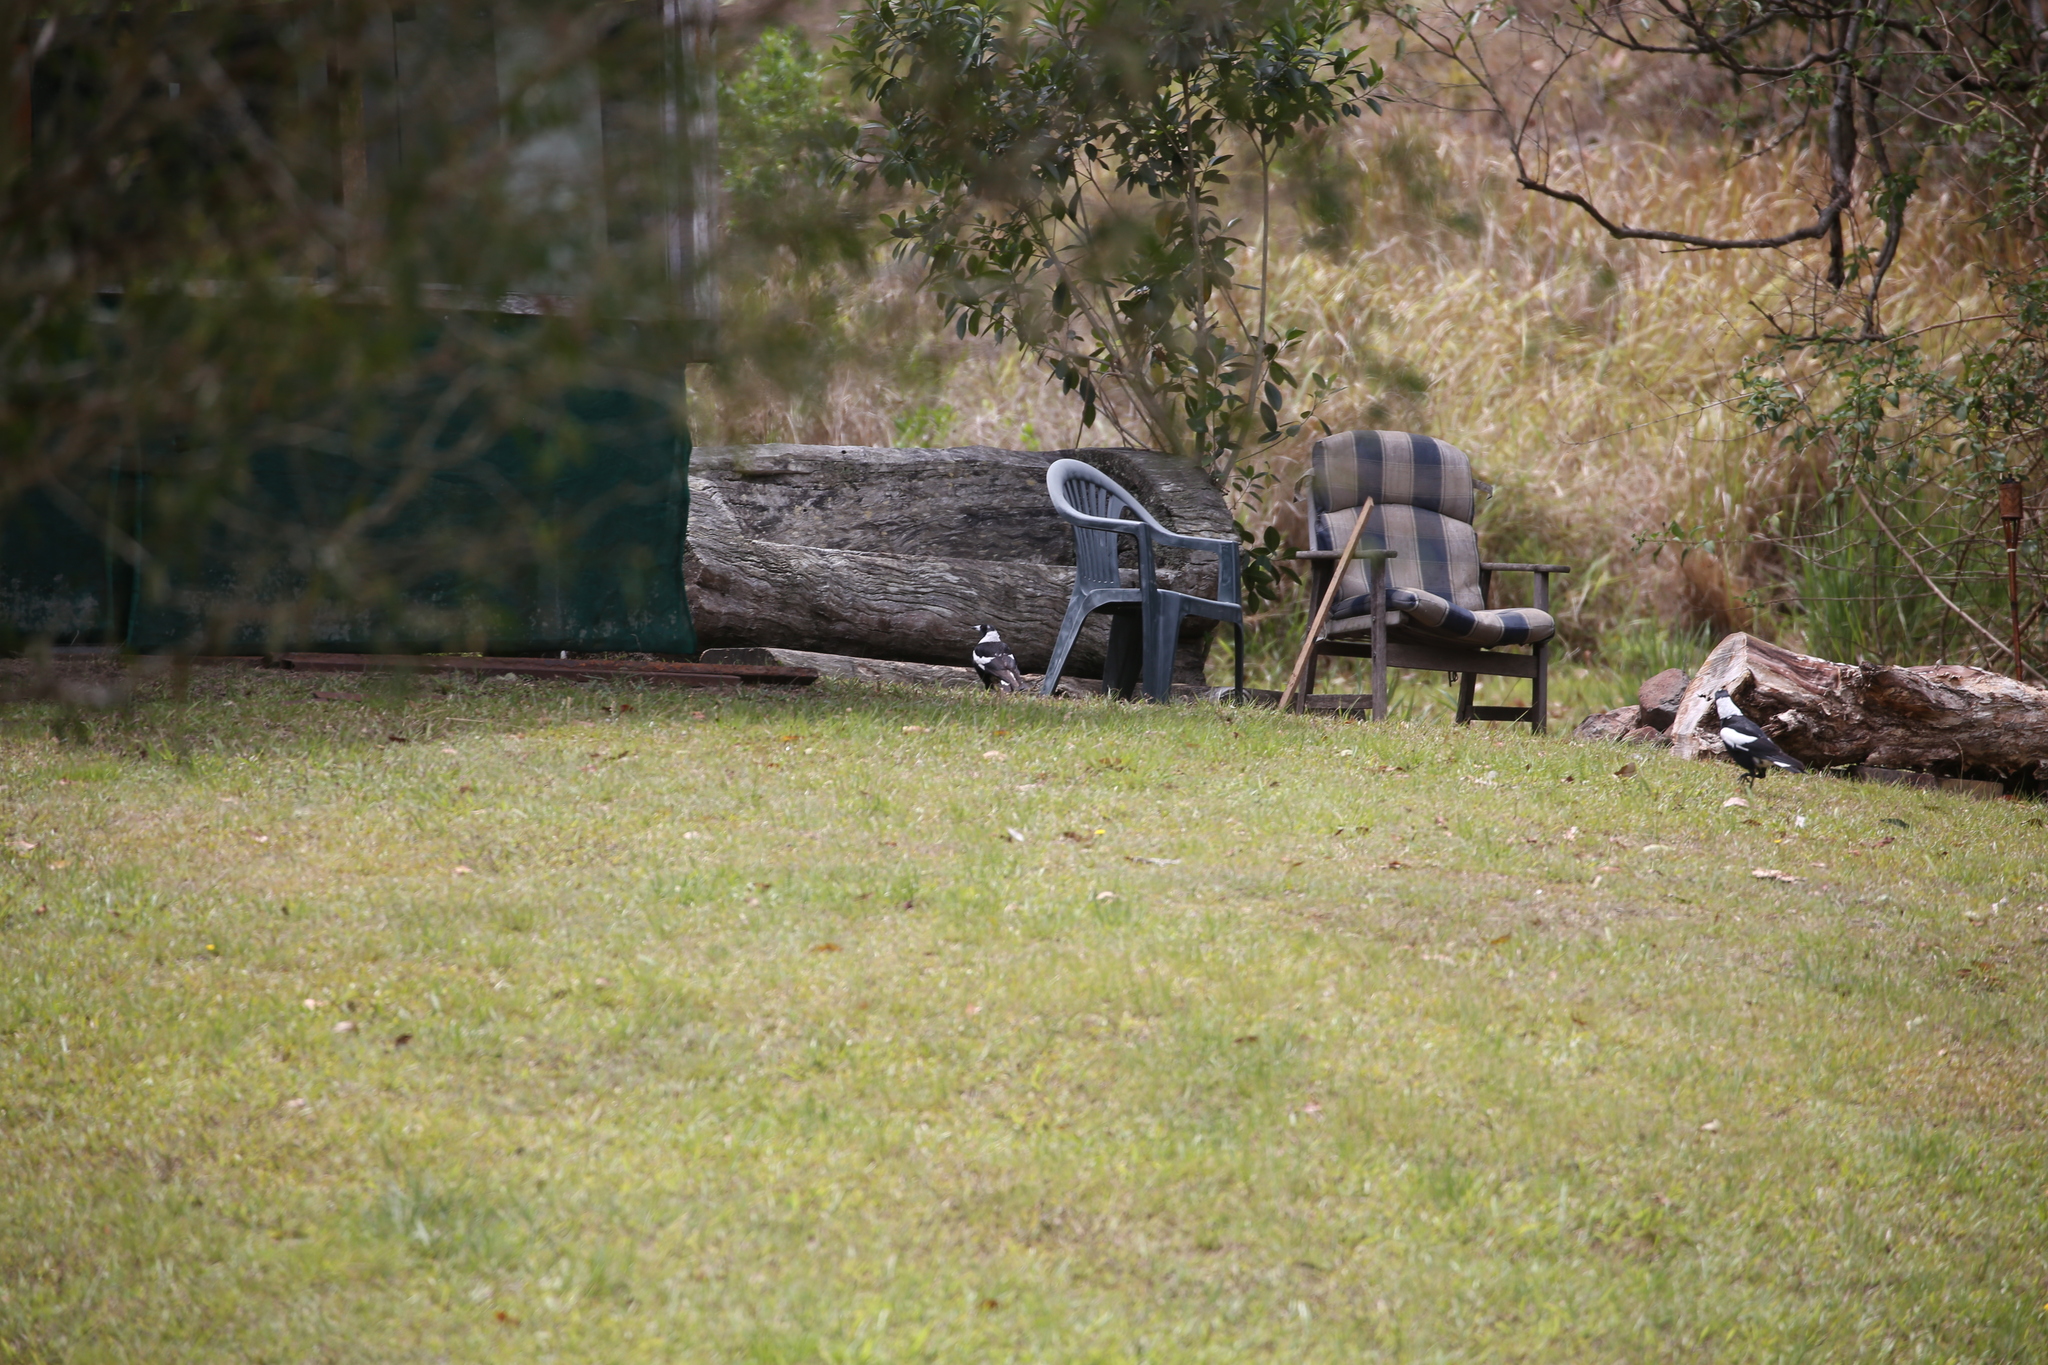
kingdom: Animalia
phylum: Chordata
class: Aves
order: Passeriformes
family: Cracticidae
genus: Gymnorhina
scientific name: Gymnorhina tibicen
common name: Australian magpie
